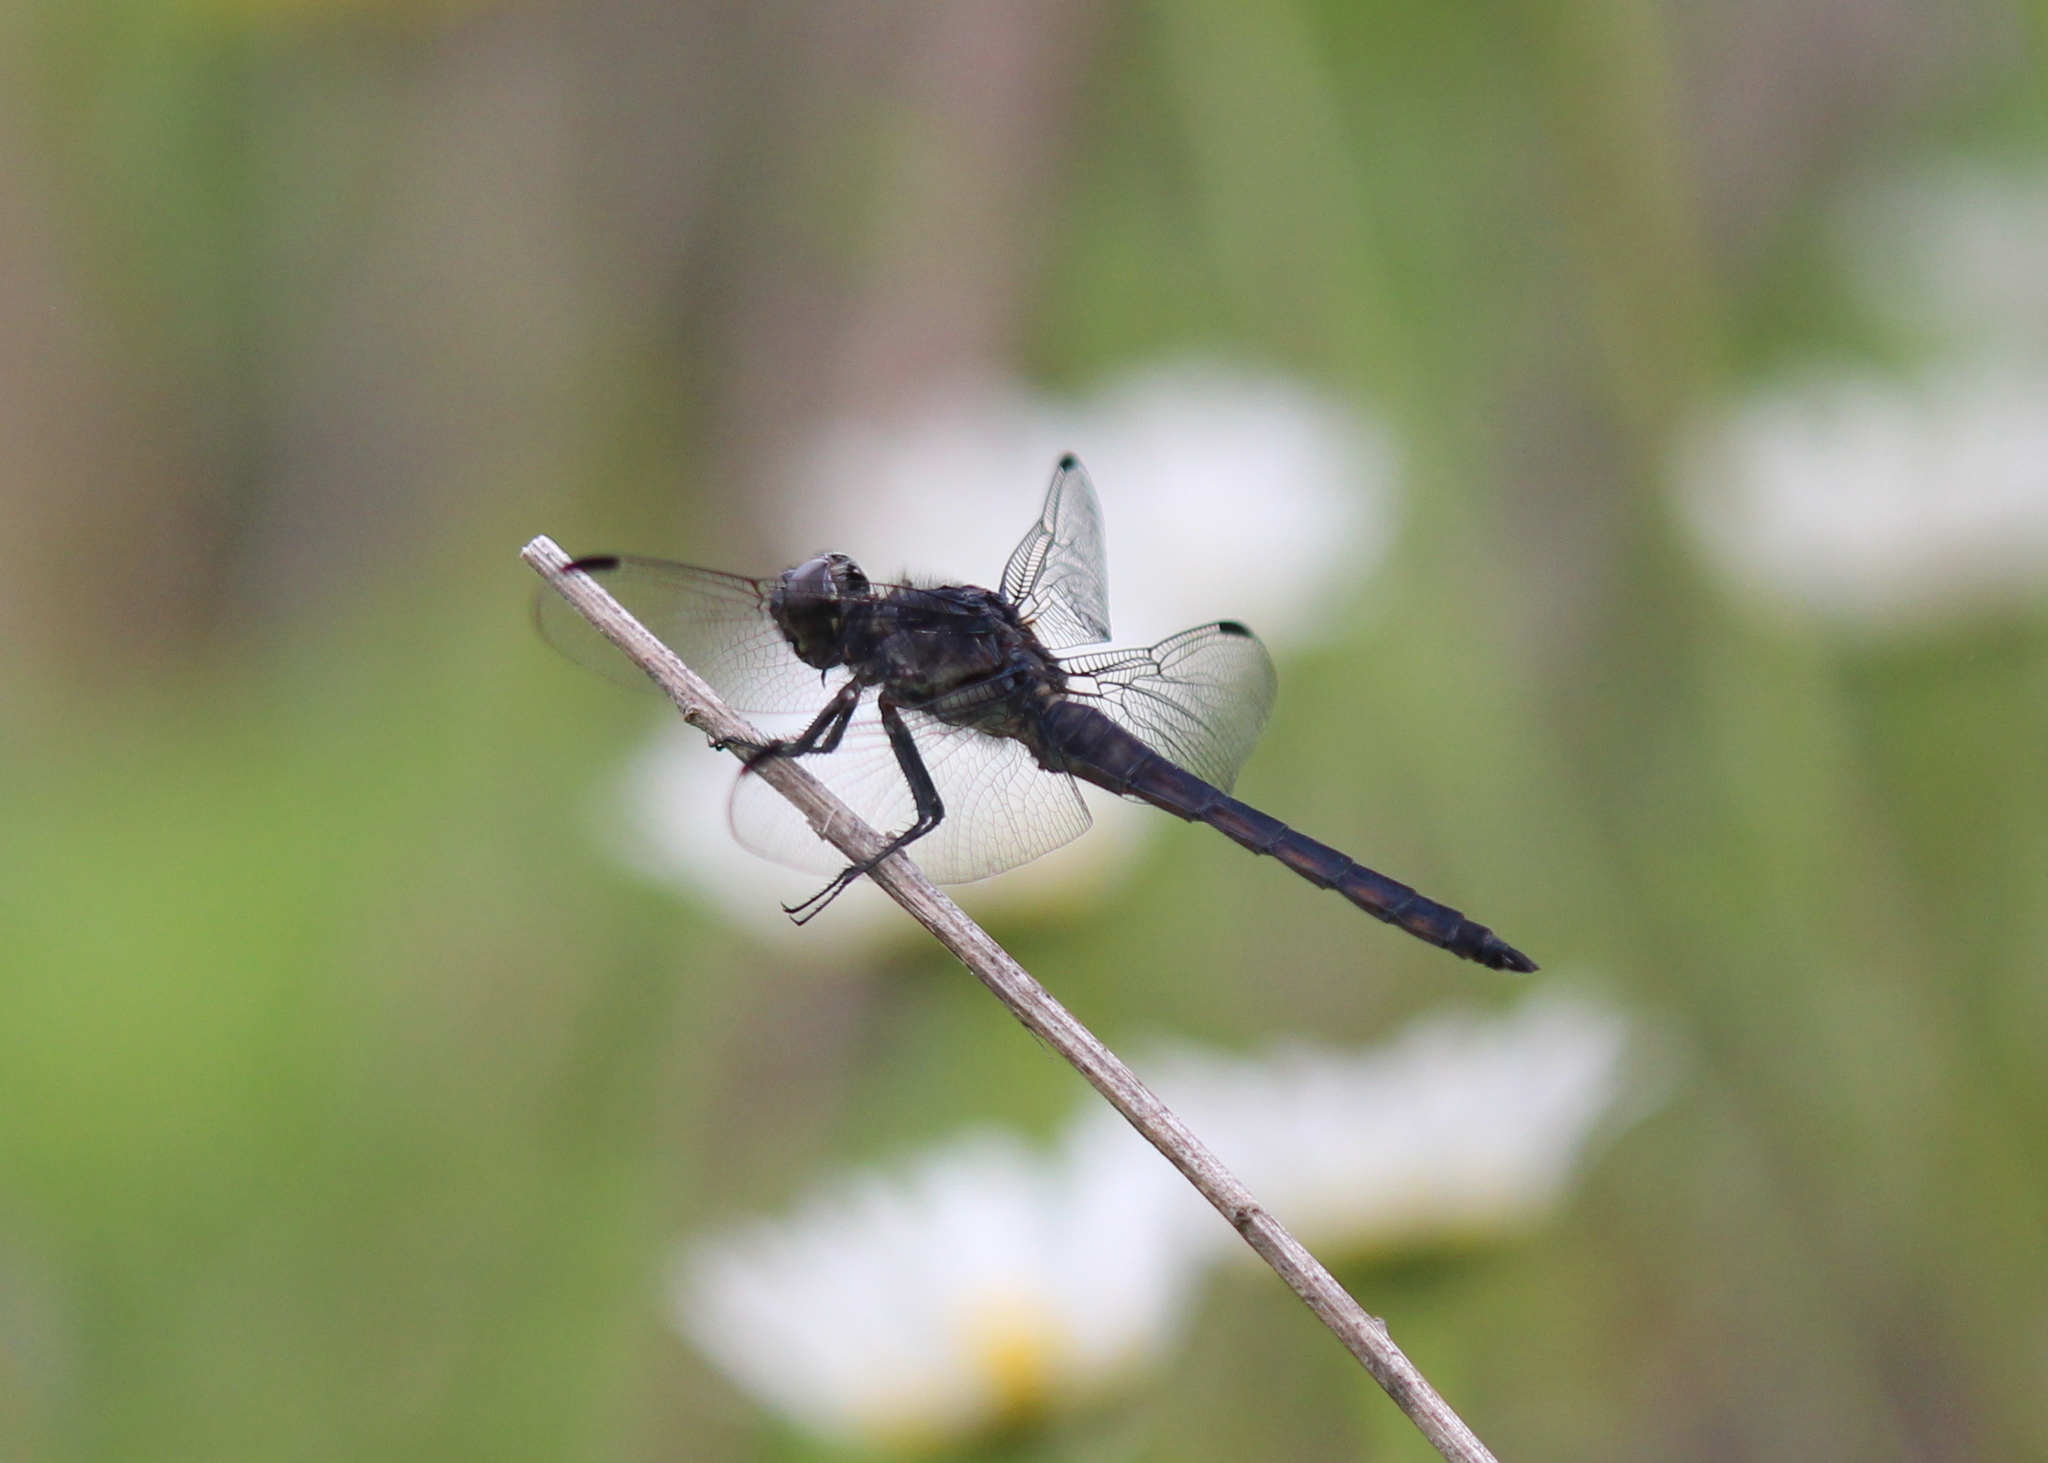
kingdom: Animalia
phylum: Arthropoda
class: Insecta
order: Odonata
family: Libellulidae
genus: Libellula
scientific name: Libellula incesta
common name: Slaty skimmer
